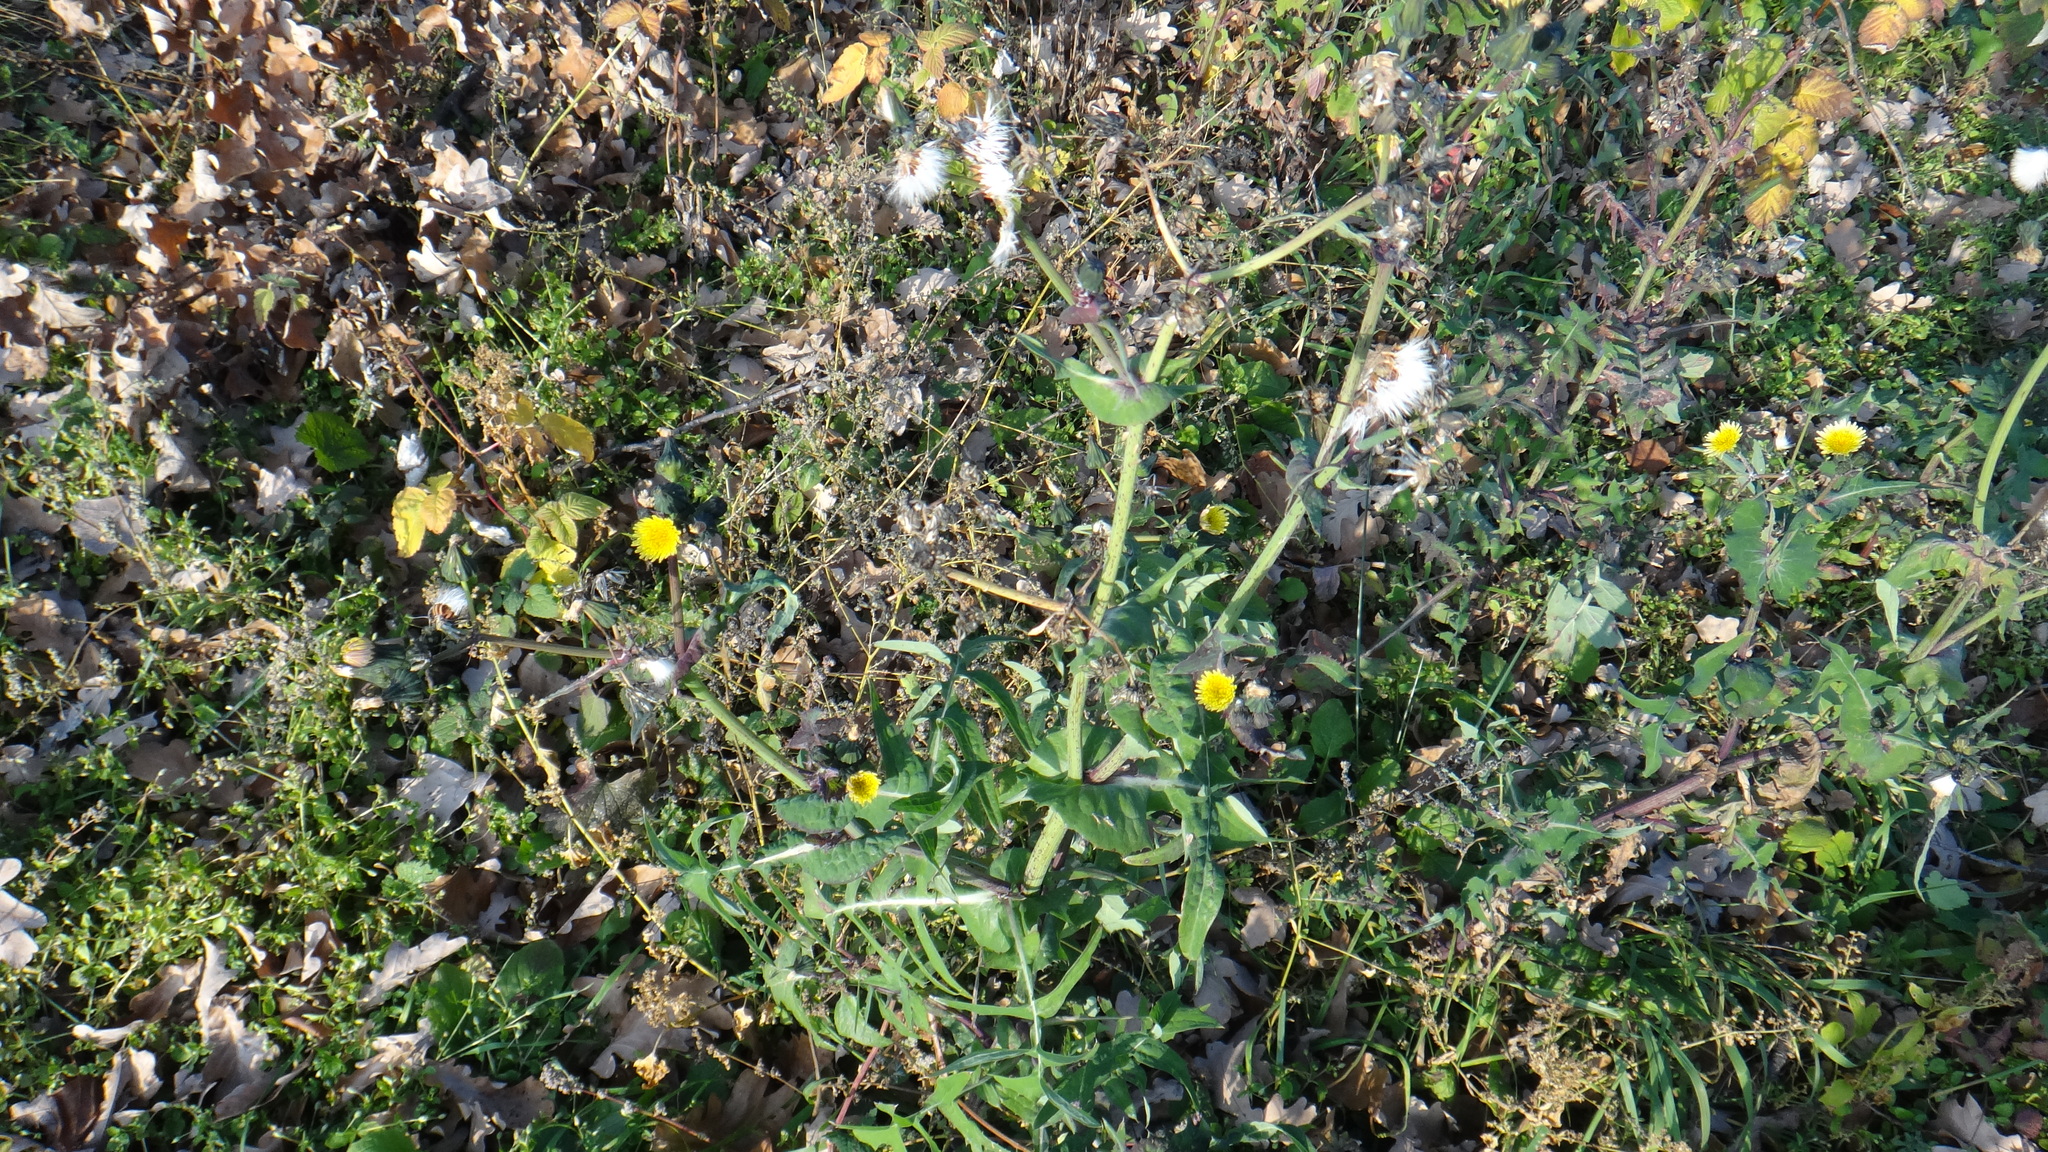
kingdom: Plantae
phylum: Tracheophyta
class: Magnoliopsida
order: Asterales
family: Asteraceae
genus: Sonchus
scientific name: Sonchus oleraceus
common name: Common sowthistle
